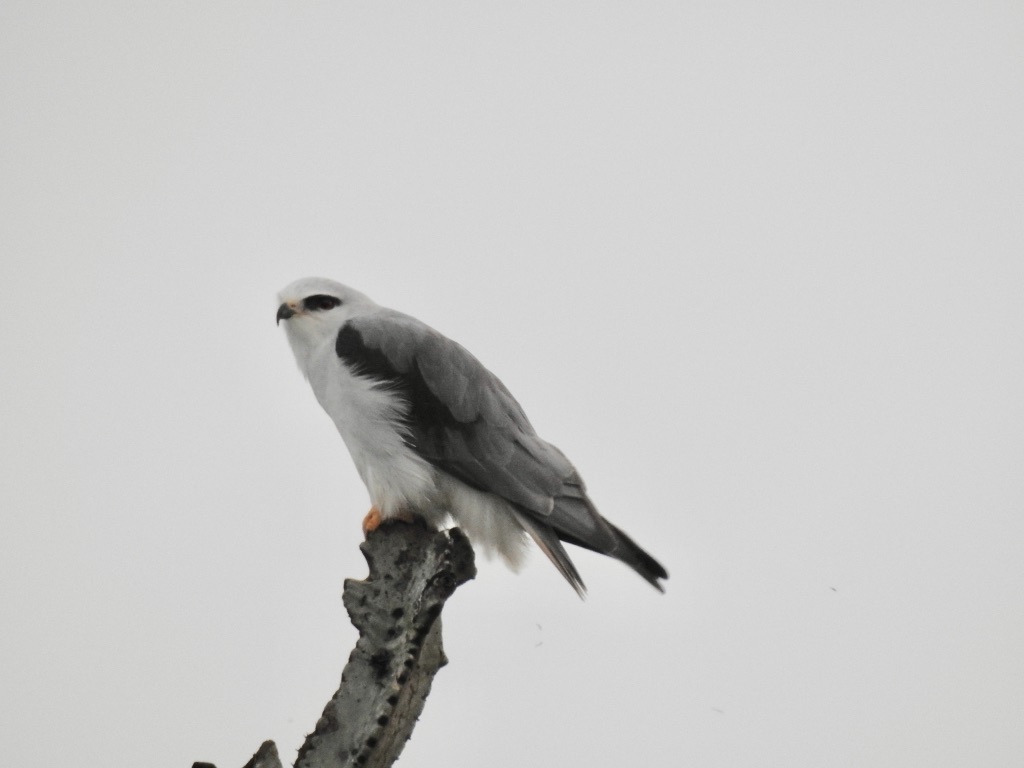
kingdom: Animalia
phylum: Chordata
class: Aves
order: Accipitriformes
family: Accipitridae
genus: Elanus
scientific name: Elanus caeruleus
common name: Black-winged kite
